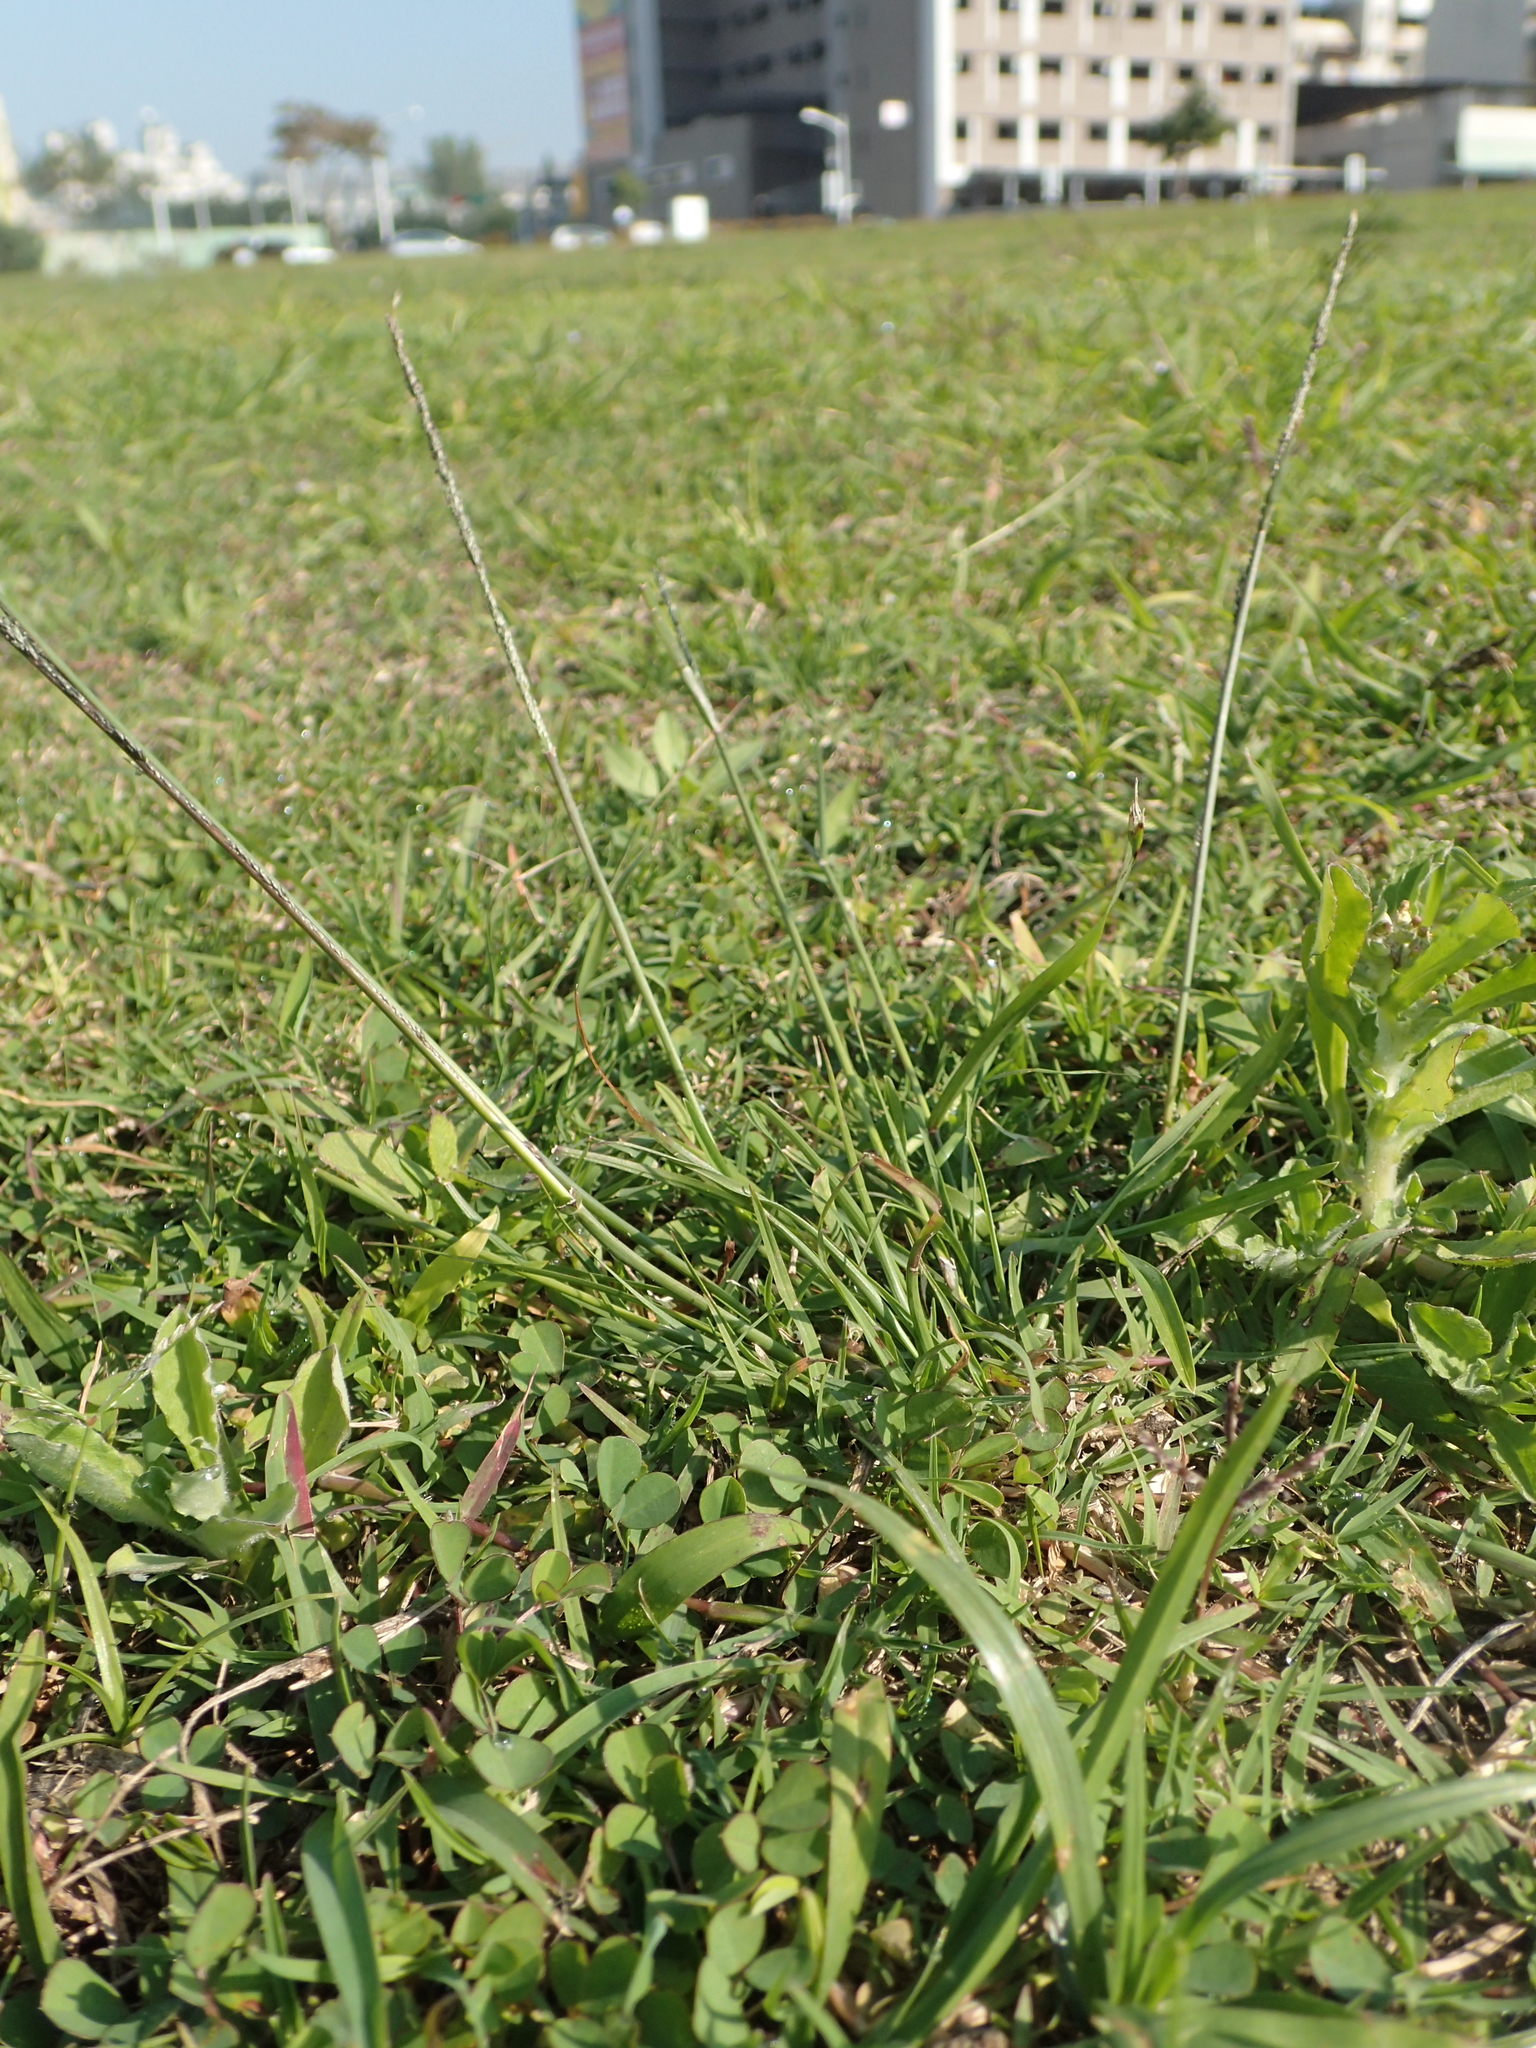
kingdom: Plantae
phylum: Tracheophyta
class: Liliopsida
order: Poales
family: Poaceae
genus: Sporobolus
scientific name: Sporobolus indicus
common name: Smut grass
